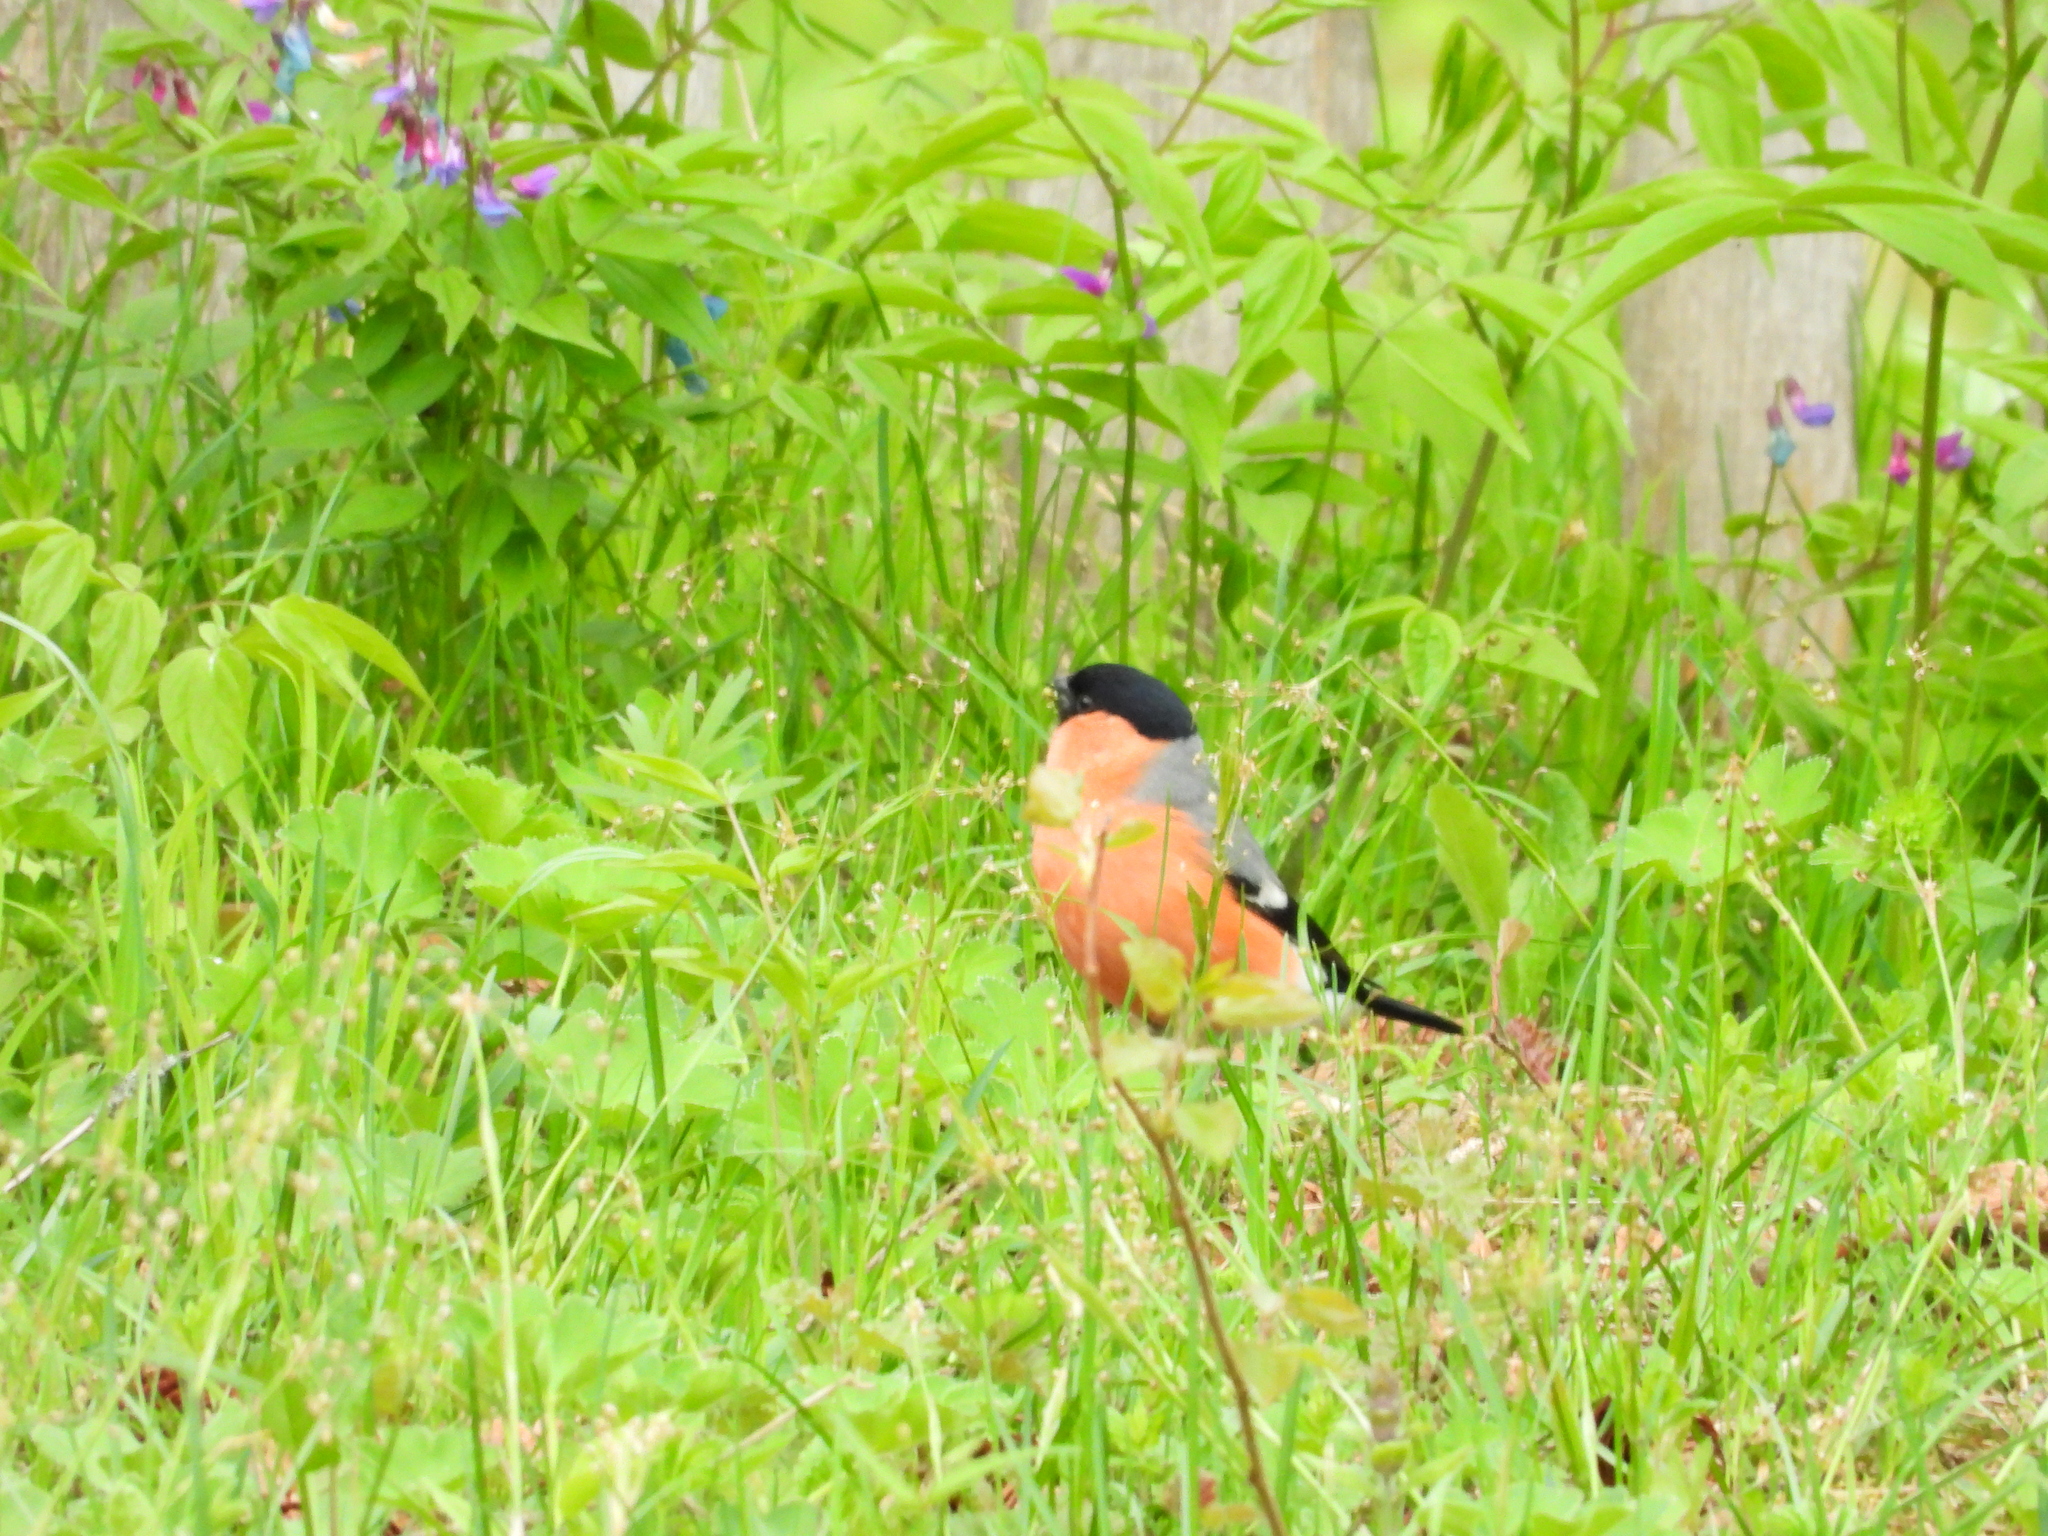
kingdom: Animalia
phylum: Chordata
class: Aves
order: Passeriformes
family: Fringillidae
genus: Pyrrhula
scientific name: Pyrrhula pyrrhula
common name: Eurasian bullfinch
